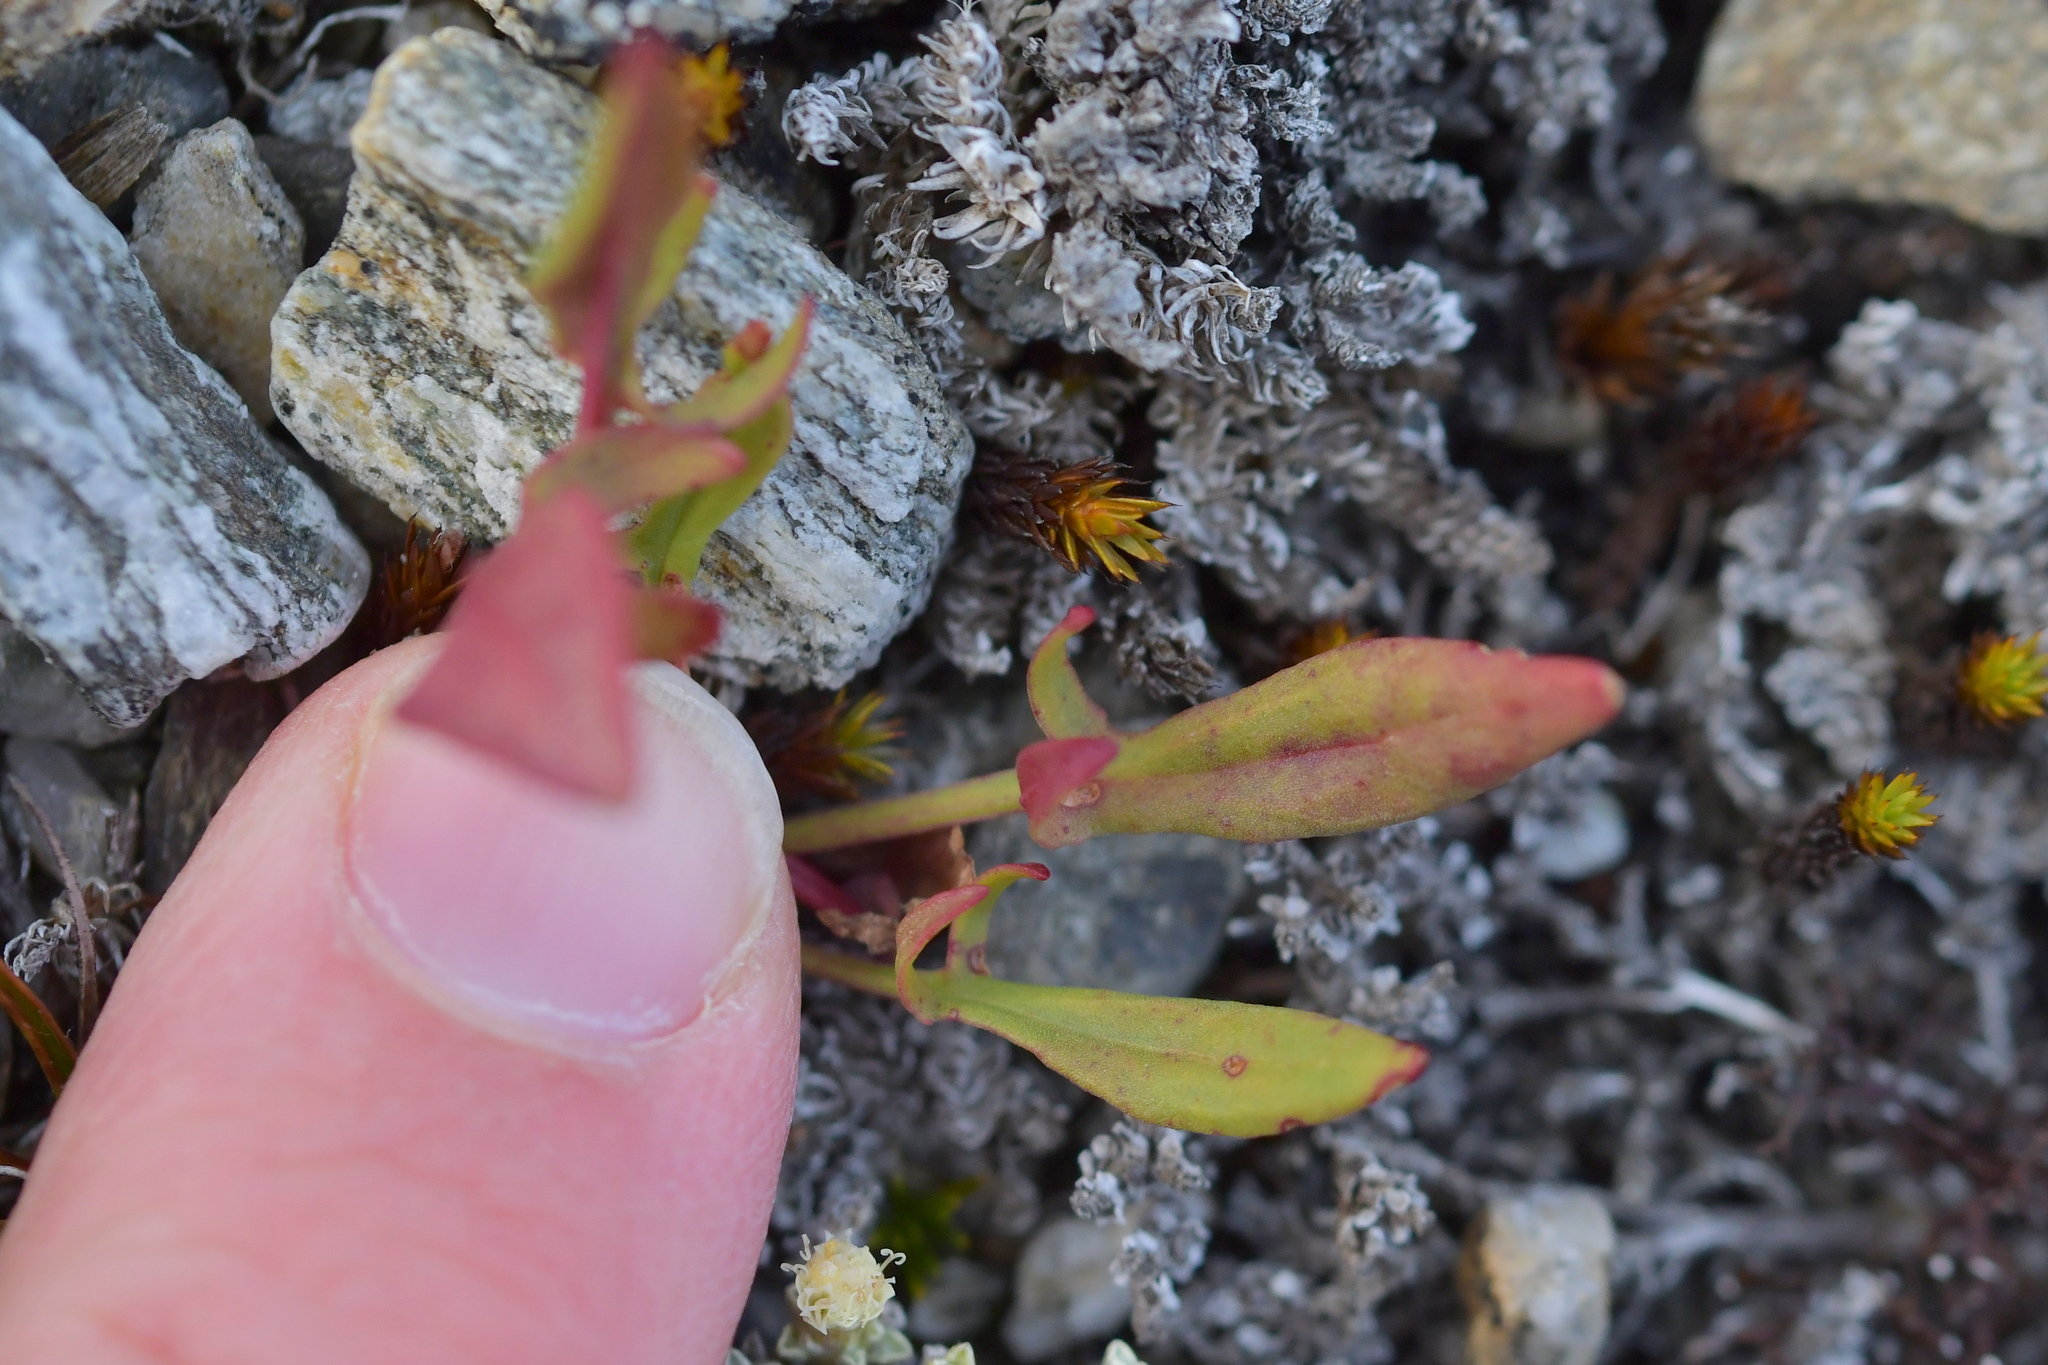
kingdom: Plantae
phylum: Tracheophyta
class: Magnoliopsida
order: Caryophyllales
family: Polygonaceae
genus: Rumex
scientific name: Rumex acetosella
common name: Common sheep sorrel
